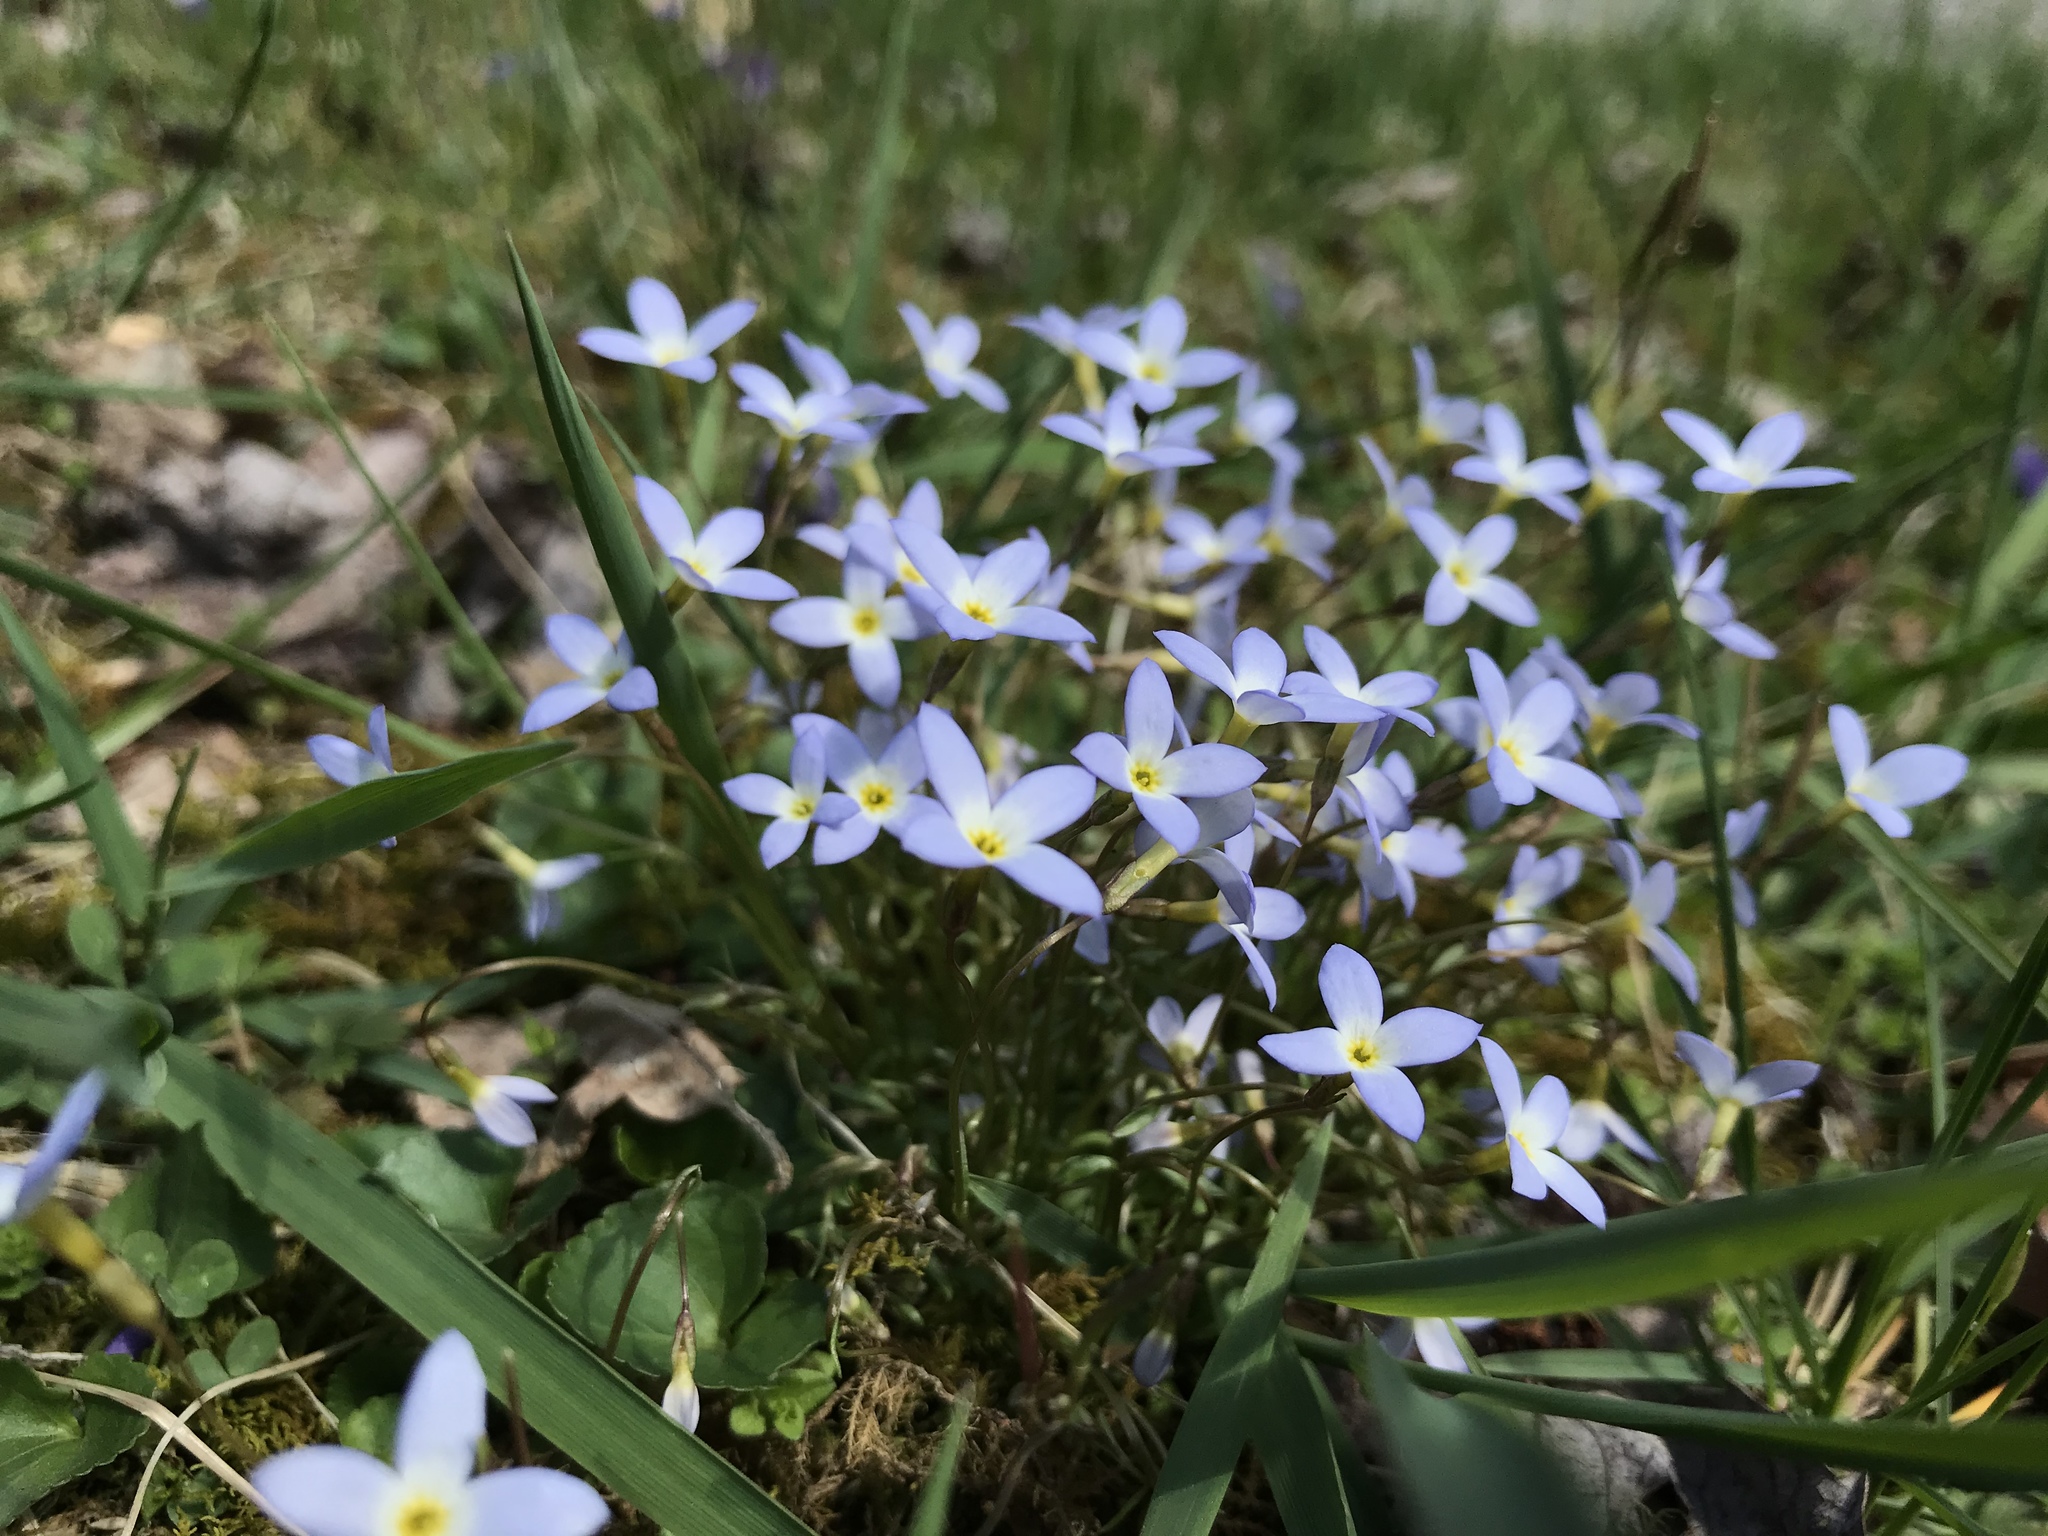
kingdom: Plantae
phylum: Tracheophyta
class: Magnoliopsida
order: Gentianales
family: Rubiaceae
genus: Houstonia
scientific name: Houstonia caerulea
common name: Bluets
